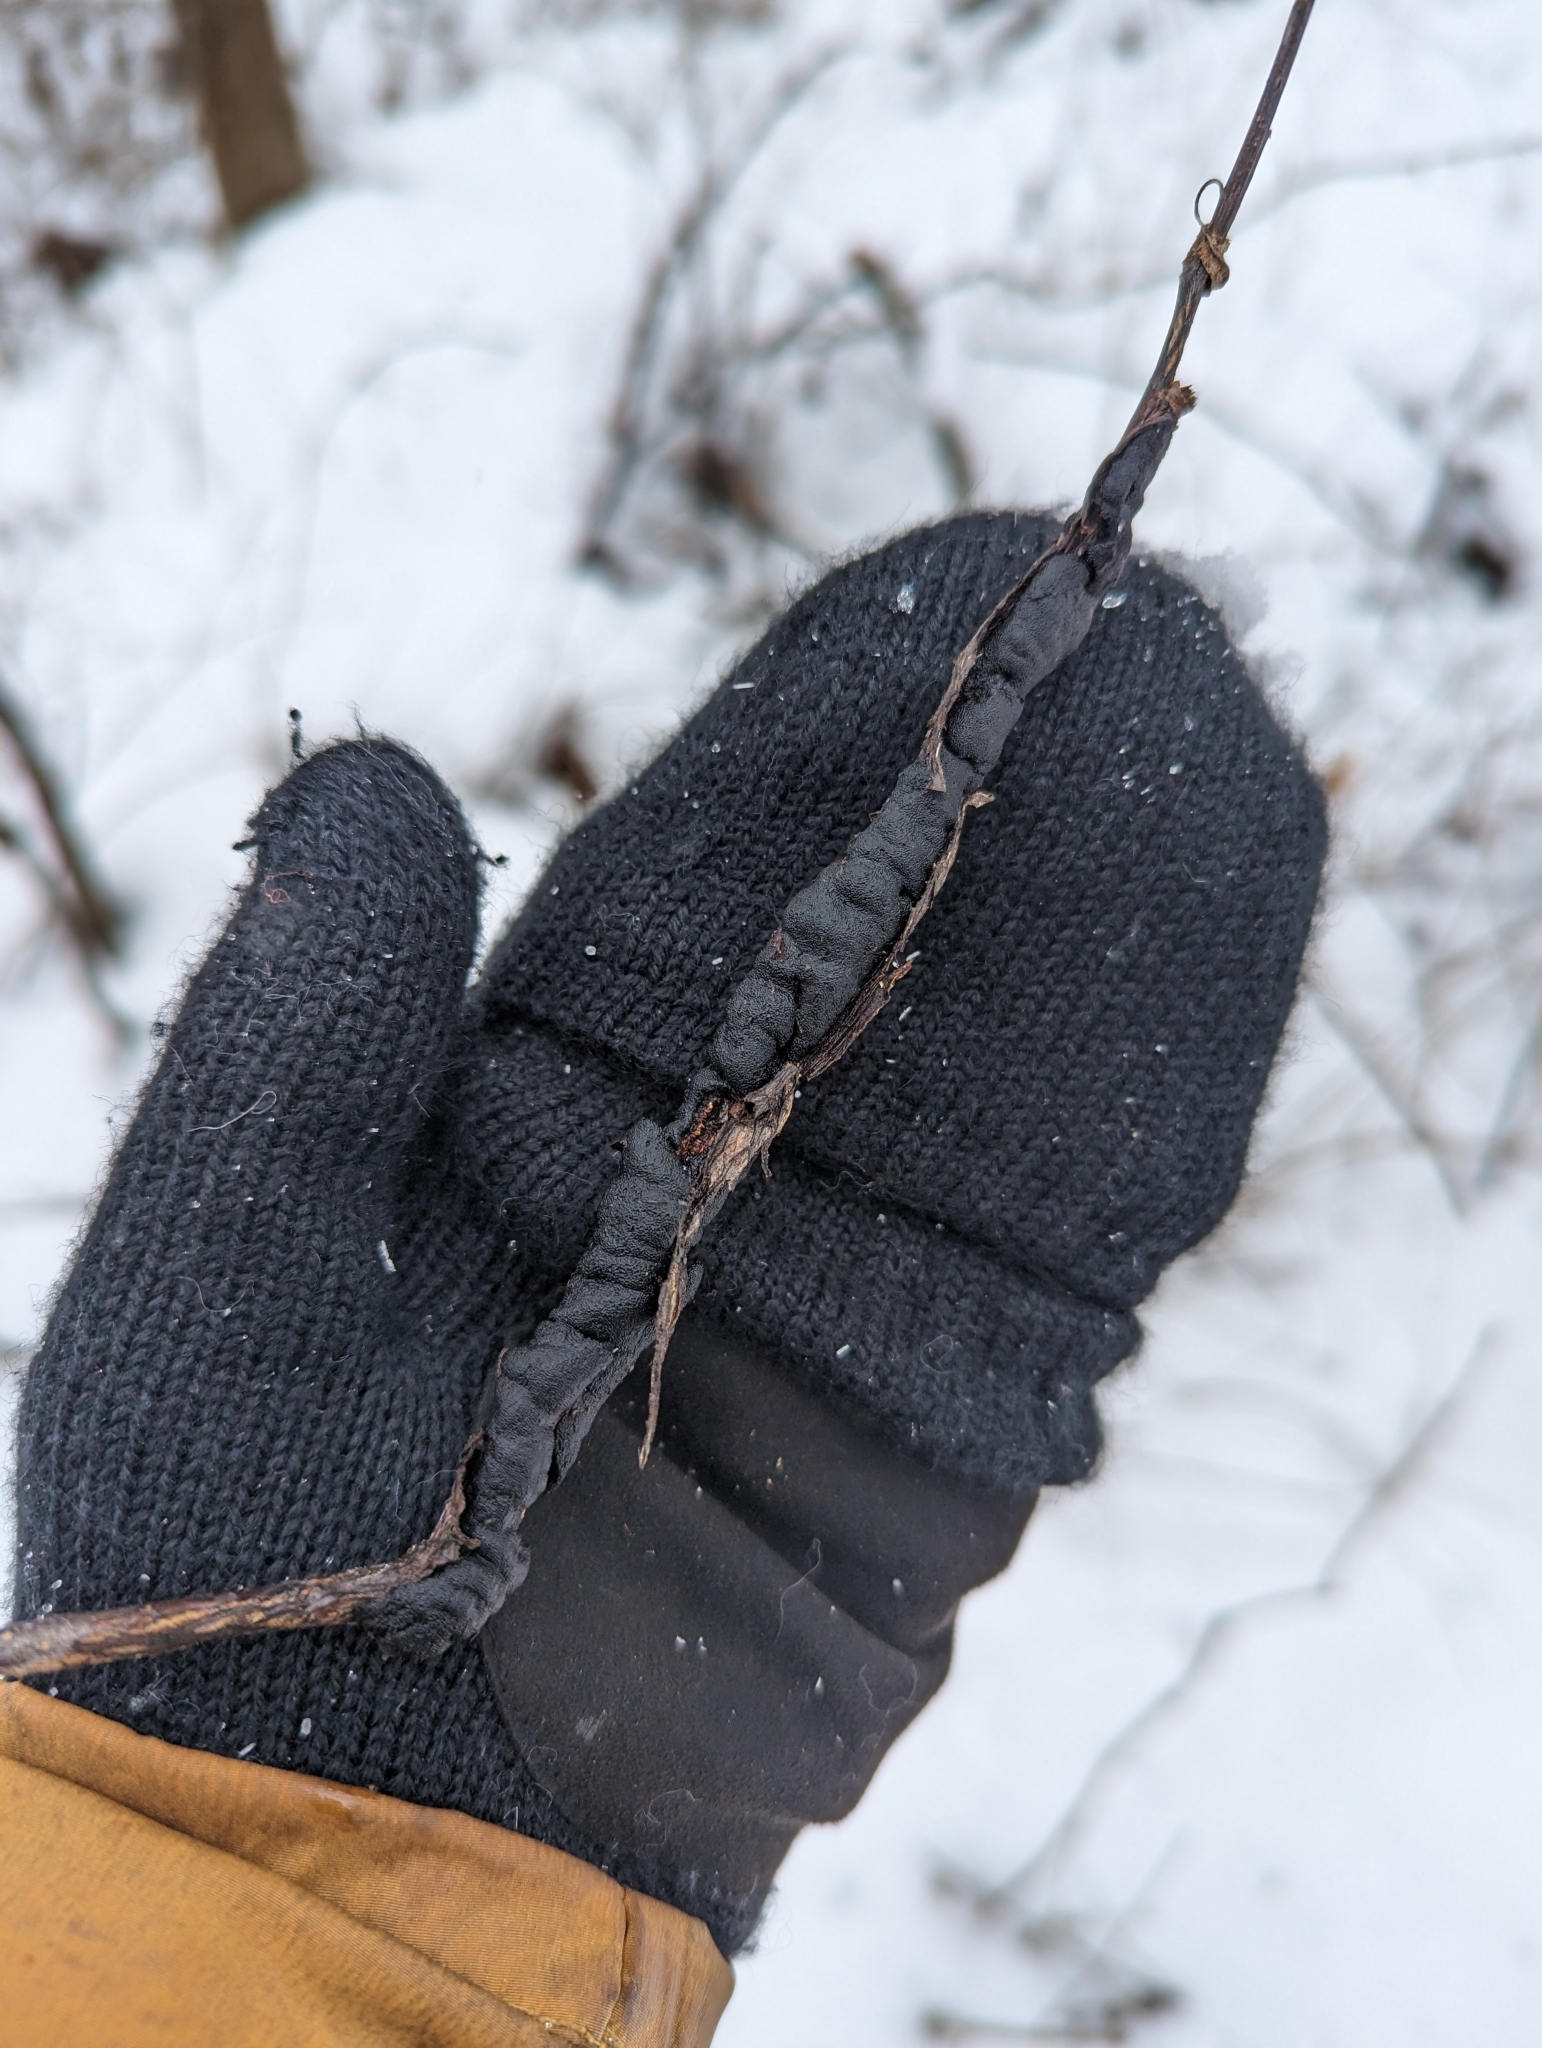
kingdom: Fungi
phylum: Ascomycota
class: Dothideomycetes
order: Venturiales
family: Venturiaceae
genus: Apiosporina
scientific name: Apiosporina morbosa
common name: Black knot
